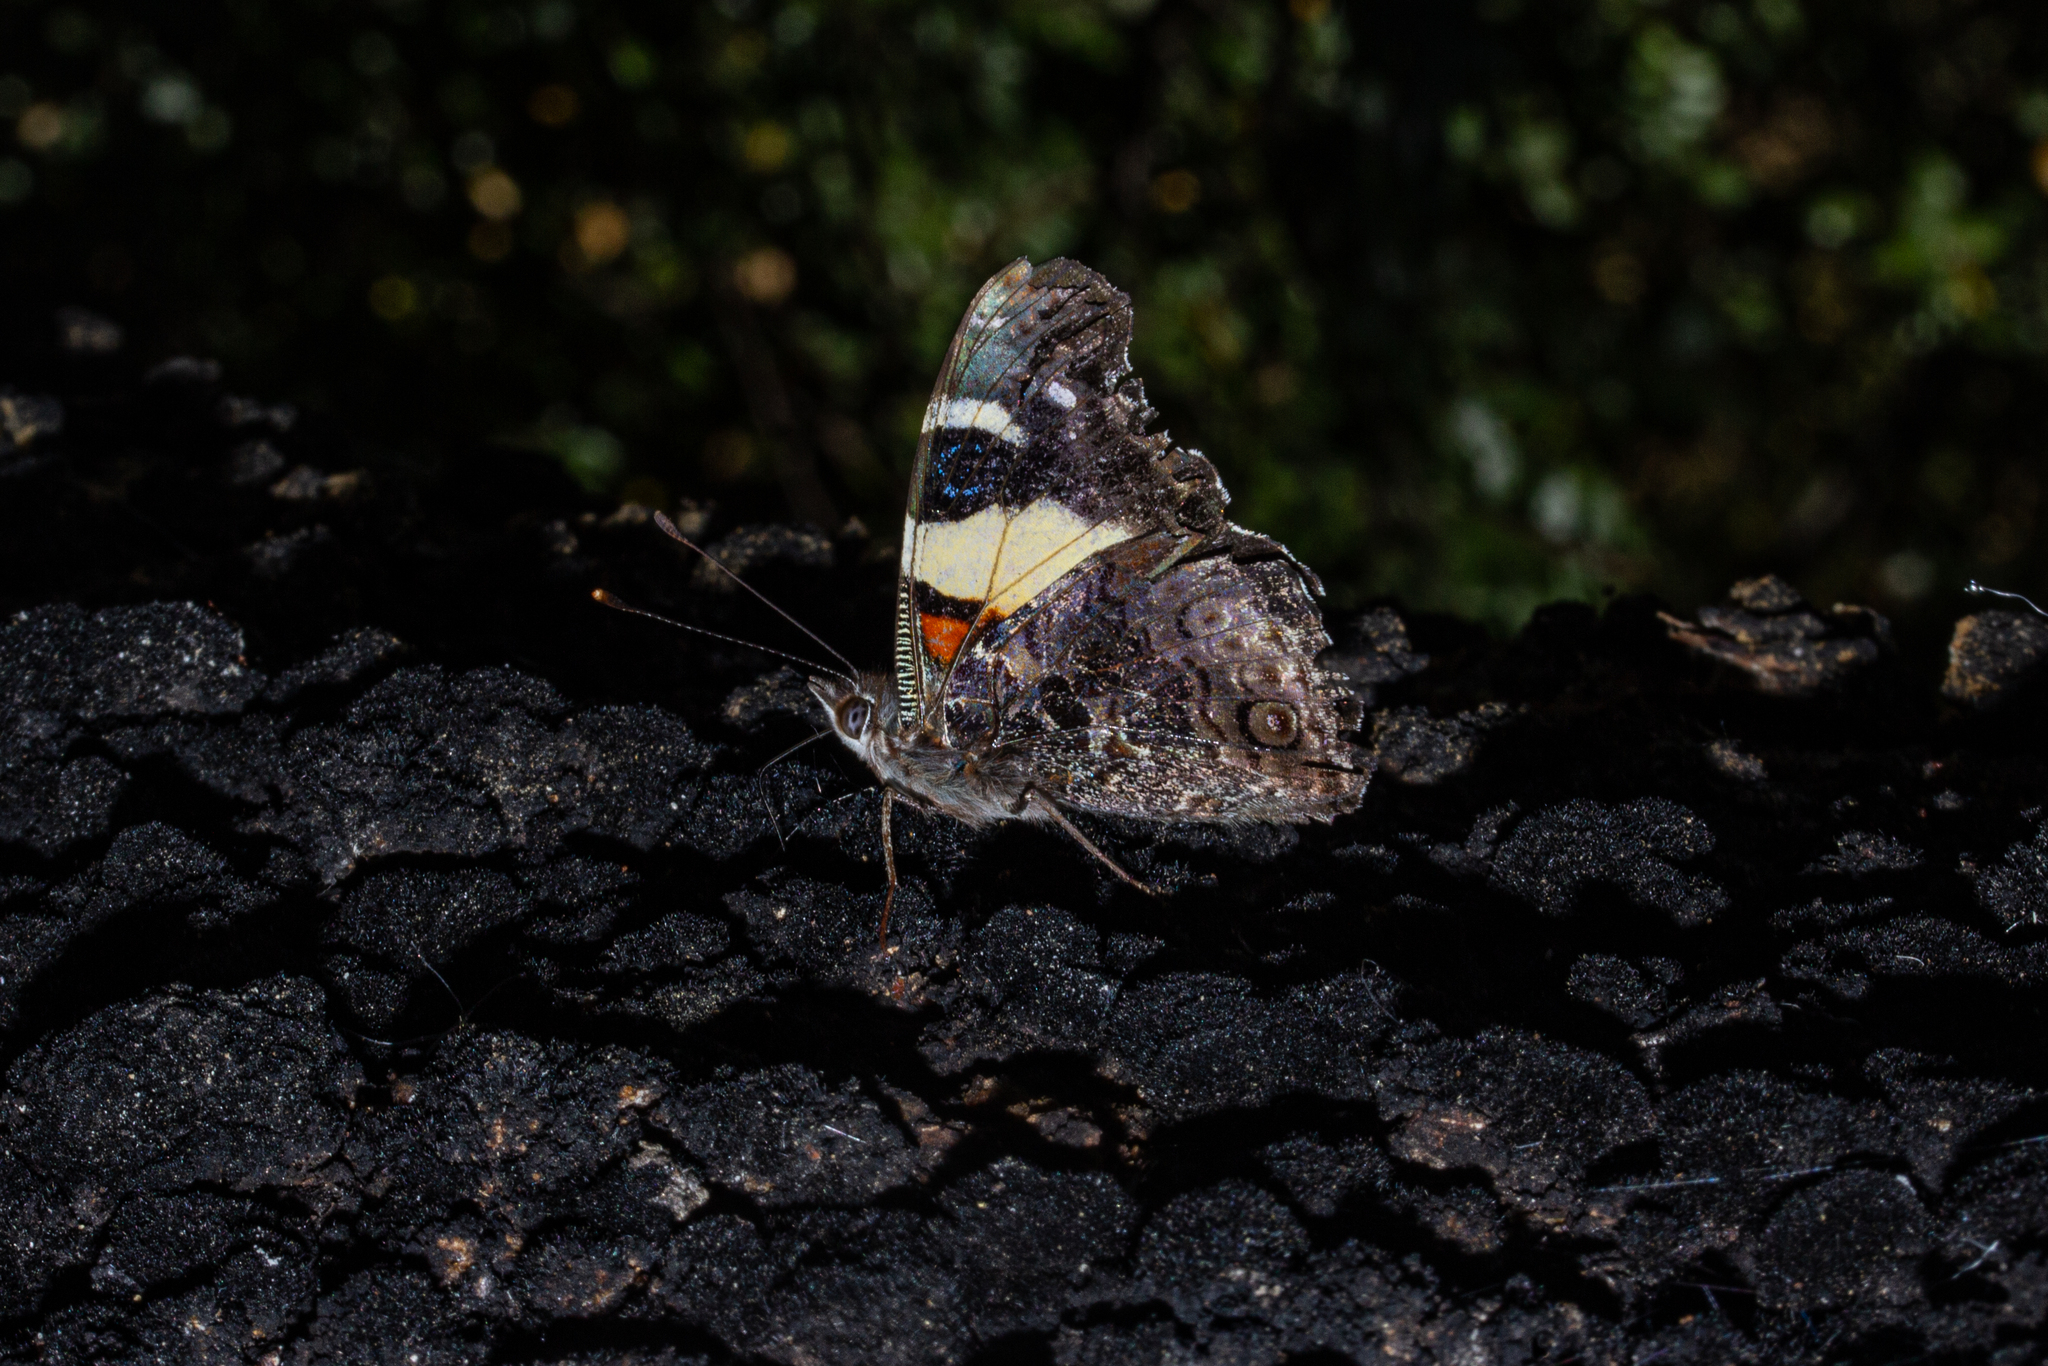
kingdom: Animalia
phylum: Arthropoda
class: Insecta
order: Lepidoptera
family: Nymphalidae
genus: Vanessa
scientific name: Vanessa itea
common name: Yellow admiral
